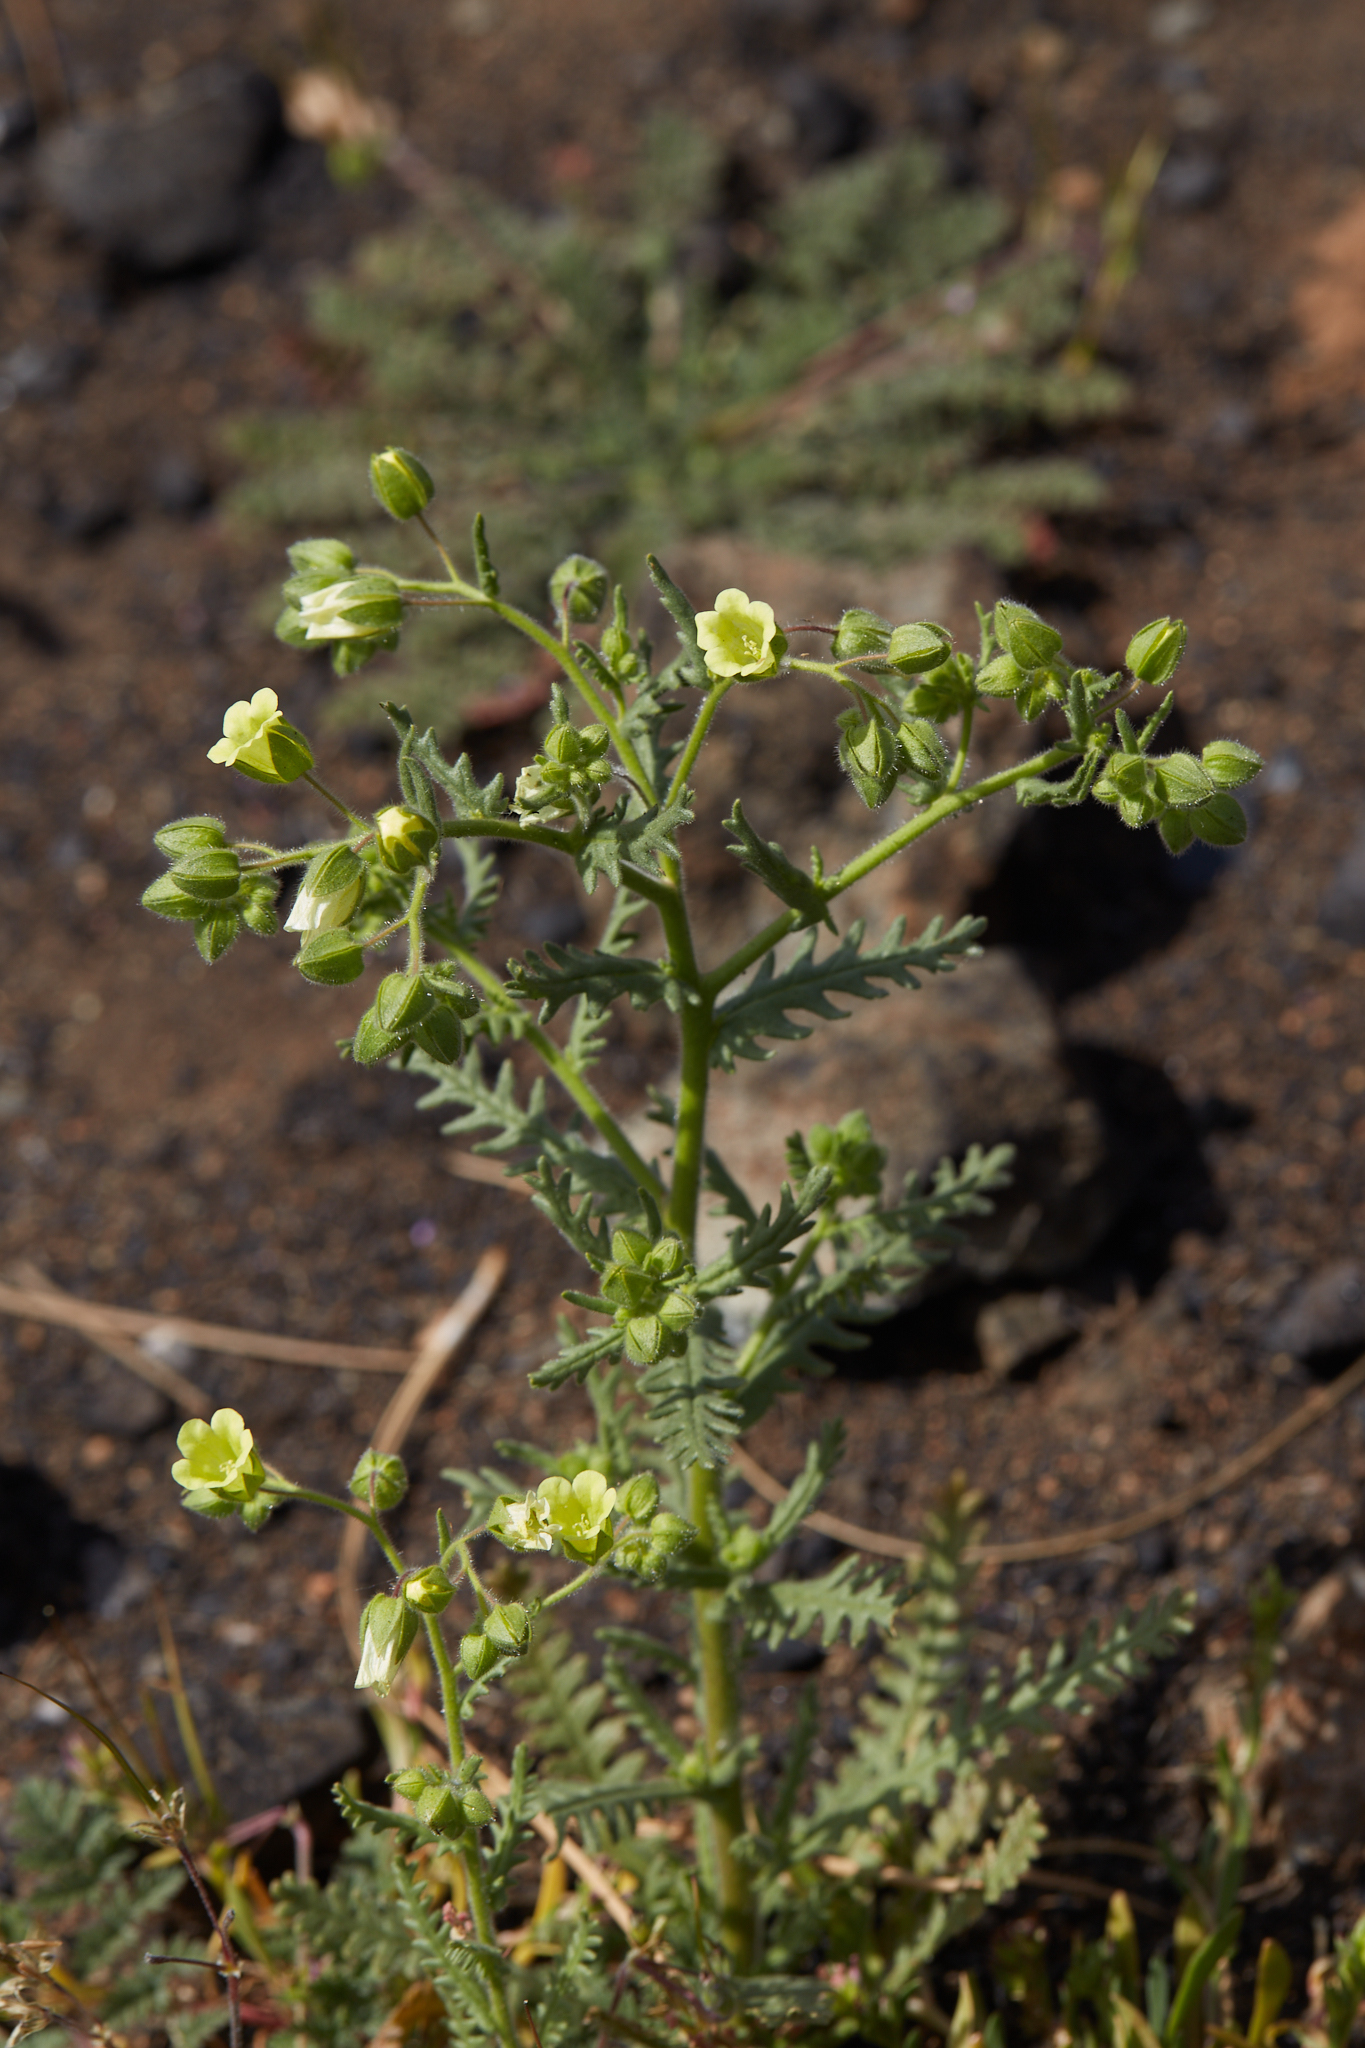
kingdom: Plantae
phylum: Tracheophyta
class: Magnoliopsida
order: Boraginales
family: Hydrophyllaceae
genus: Emmenanthe
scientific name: Emmenanthe penduliflora
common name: Whispering-bells
